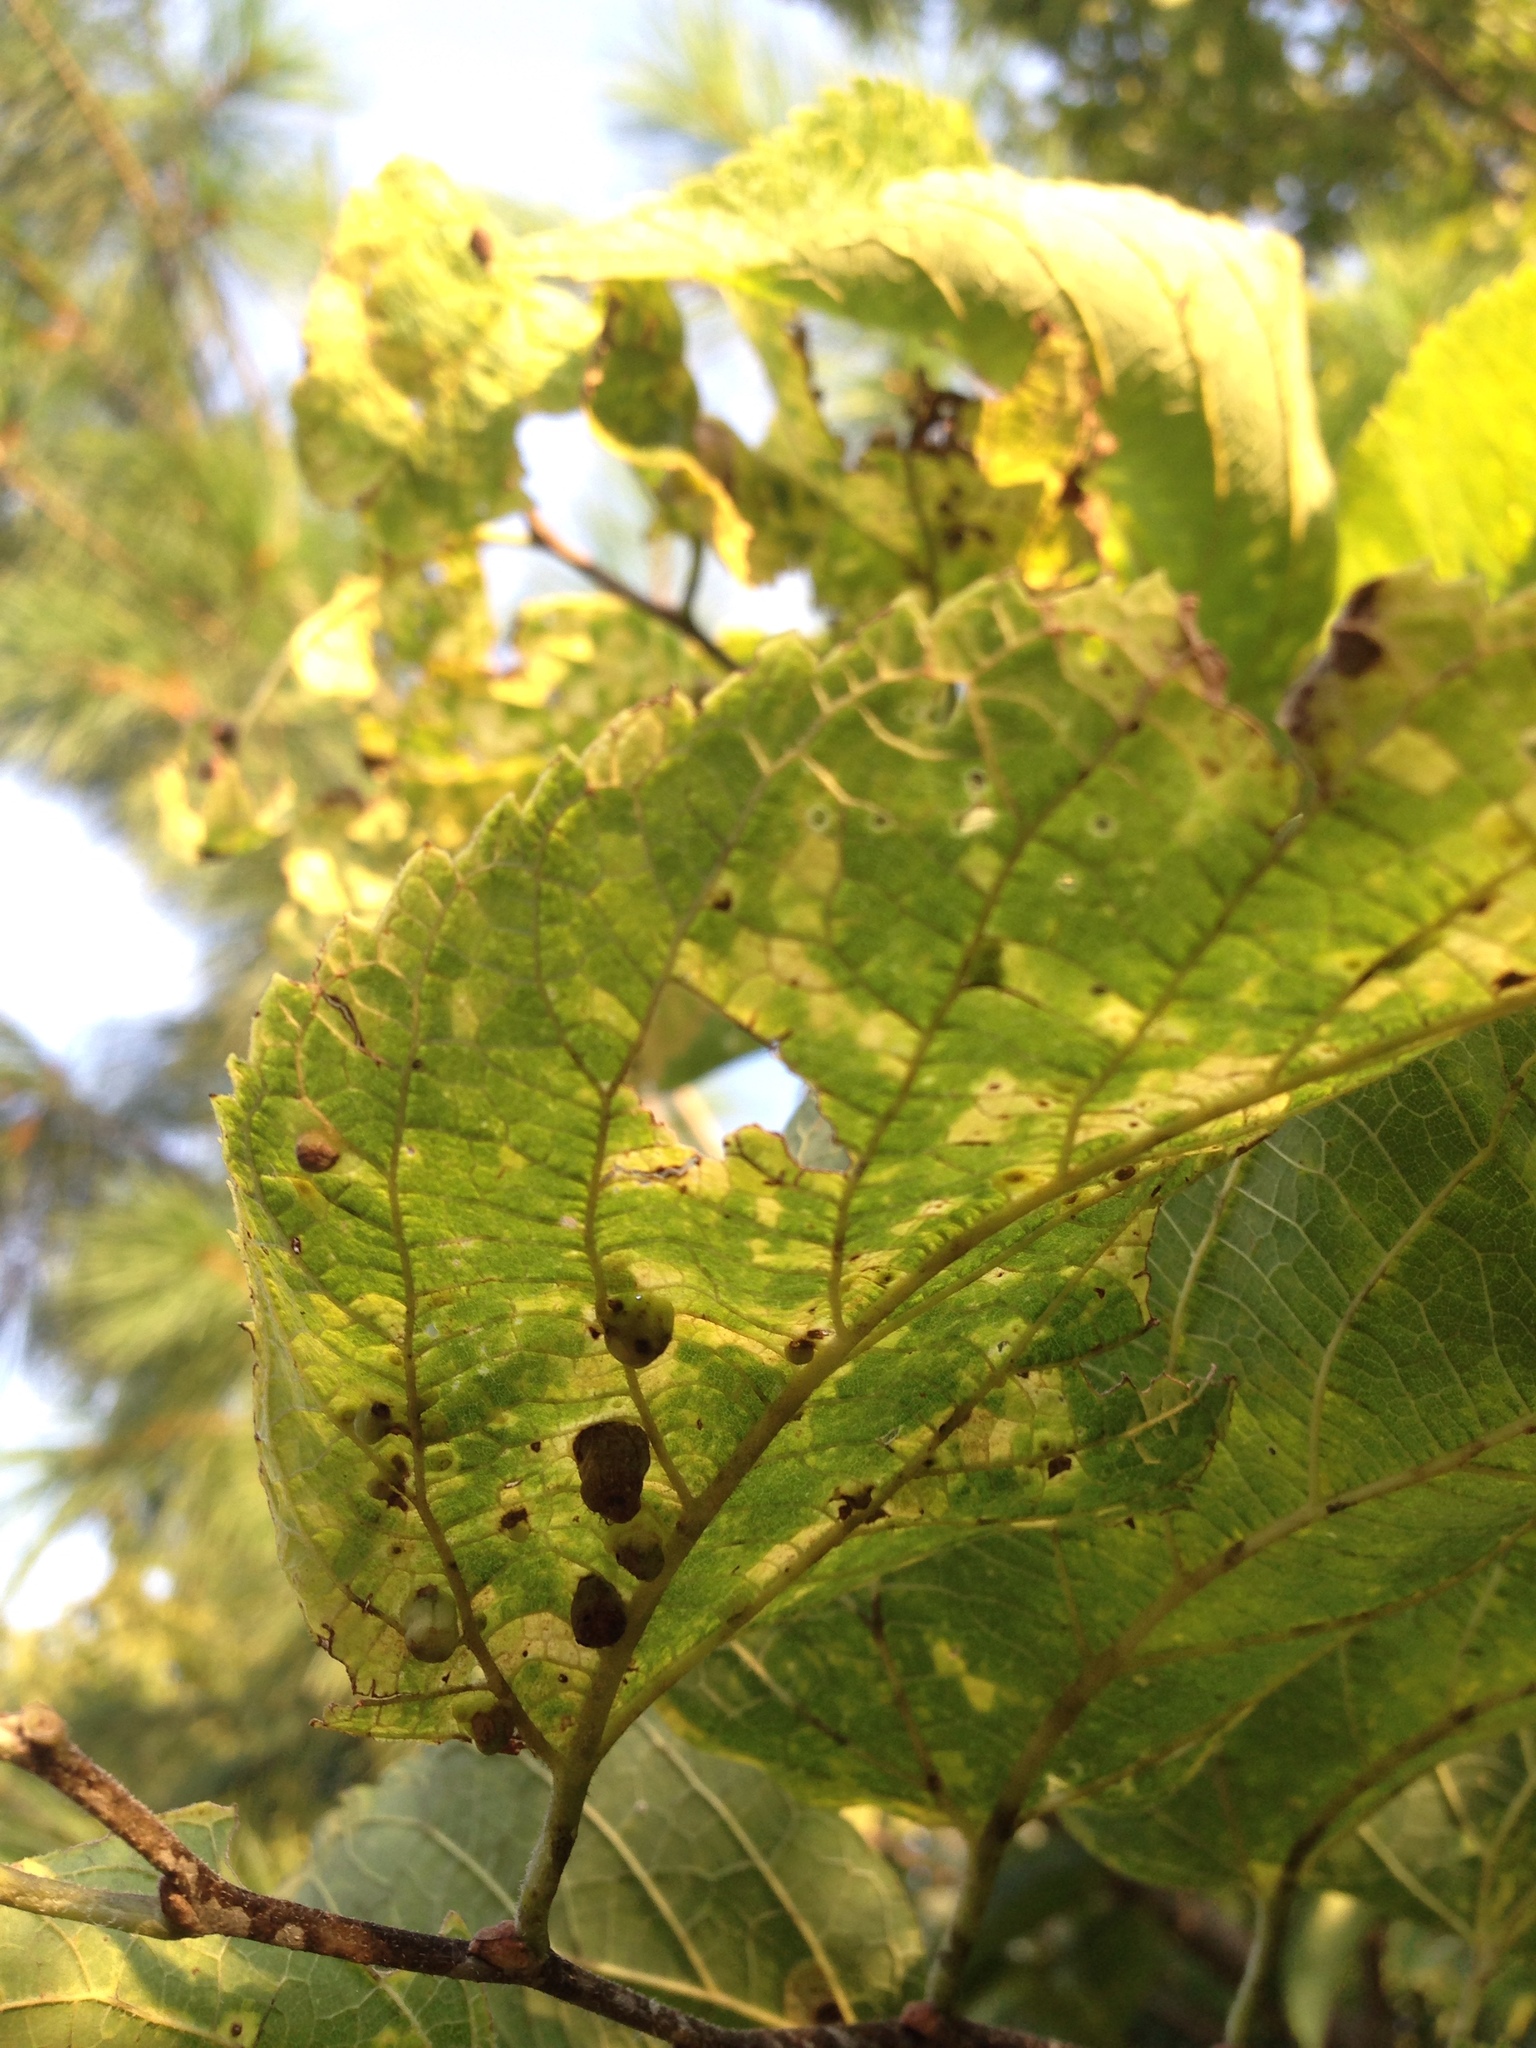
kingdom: Animalia
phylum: Arthropoda
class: Insecta
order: Hemiptera
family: Aphalaridae
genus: Pachypsylla
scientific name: Pachypsylla celtidismamma
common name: Hackberry nipplegall psyllid
